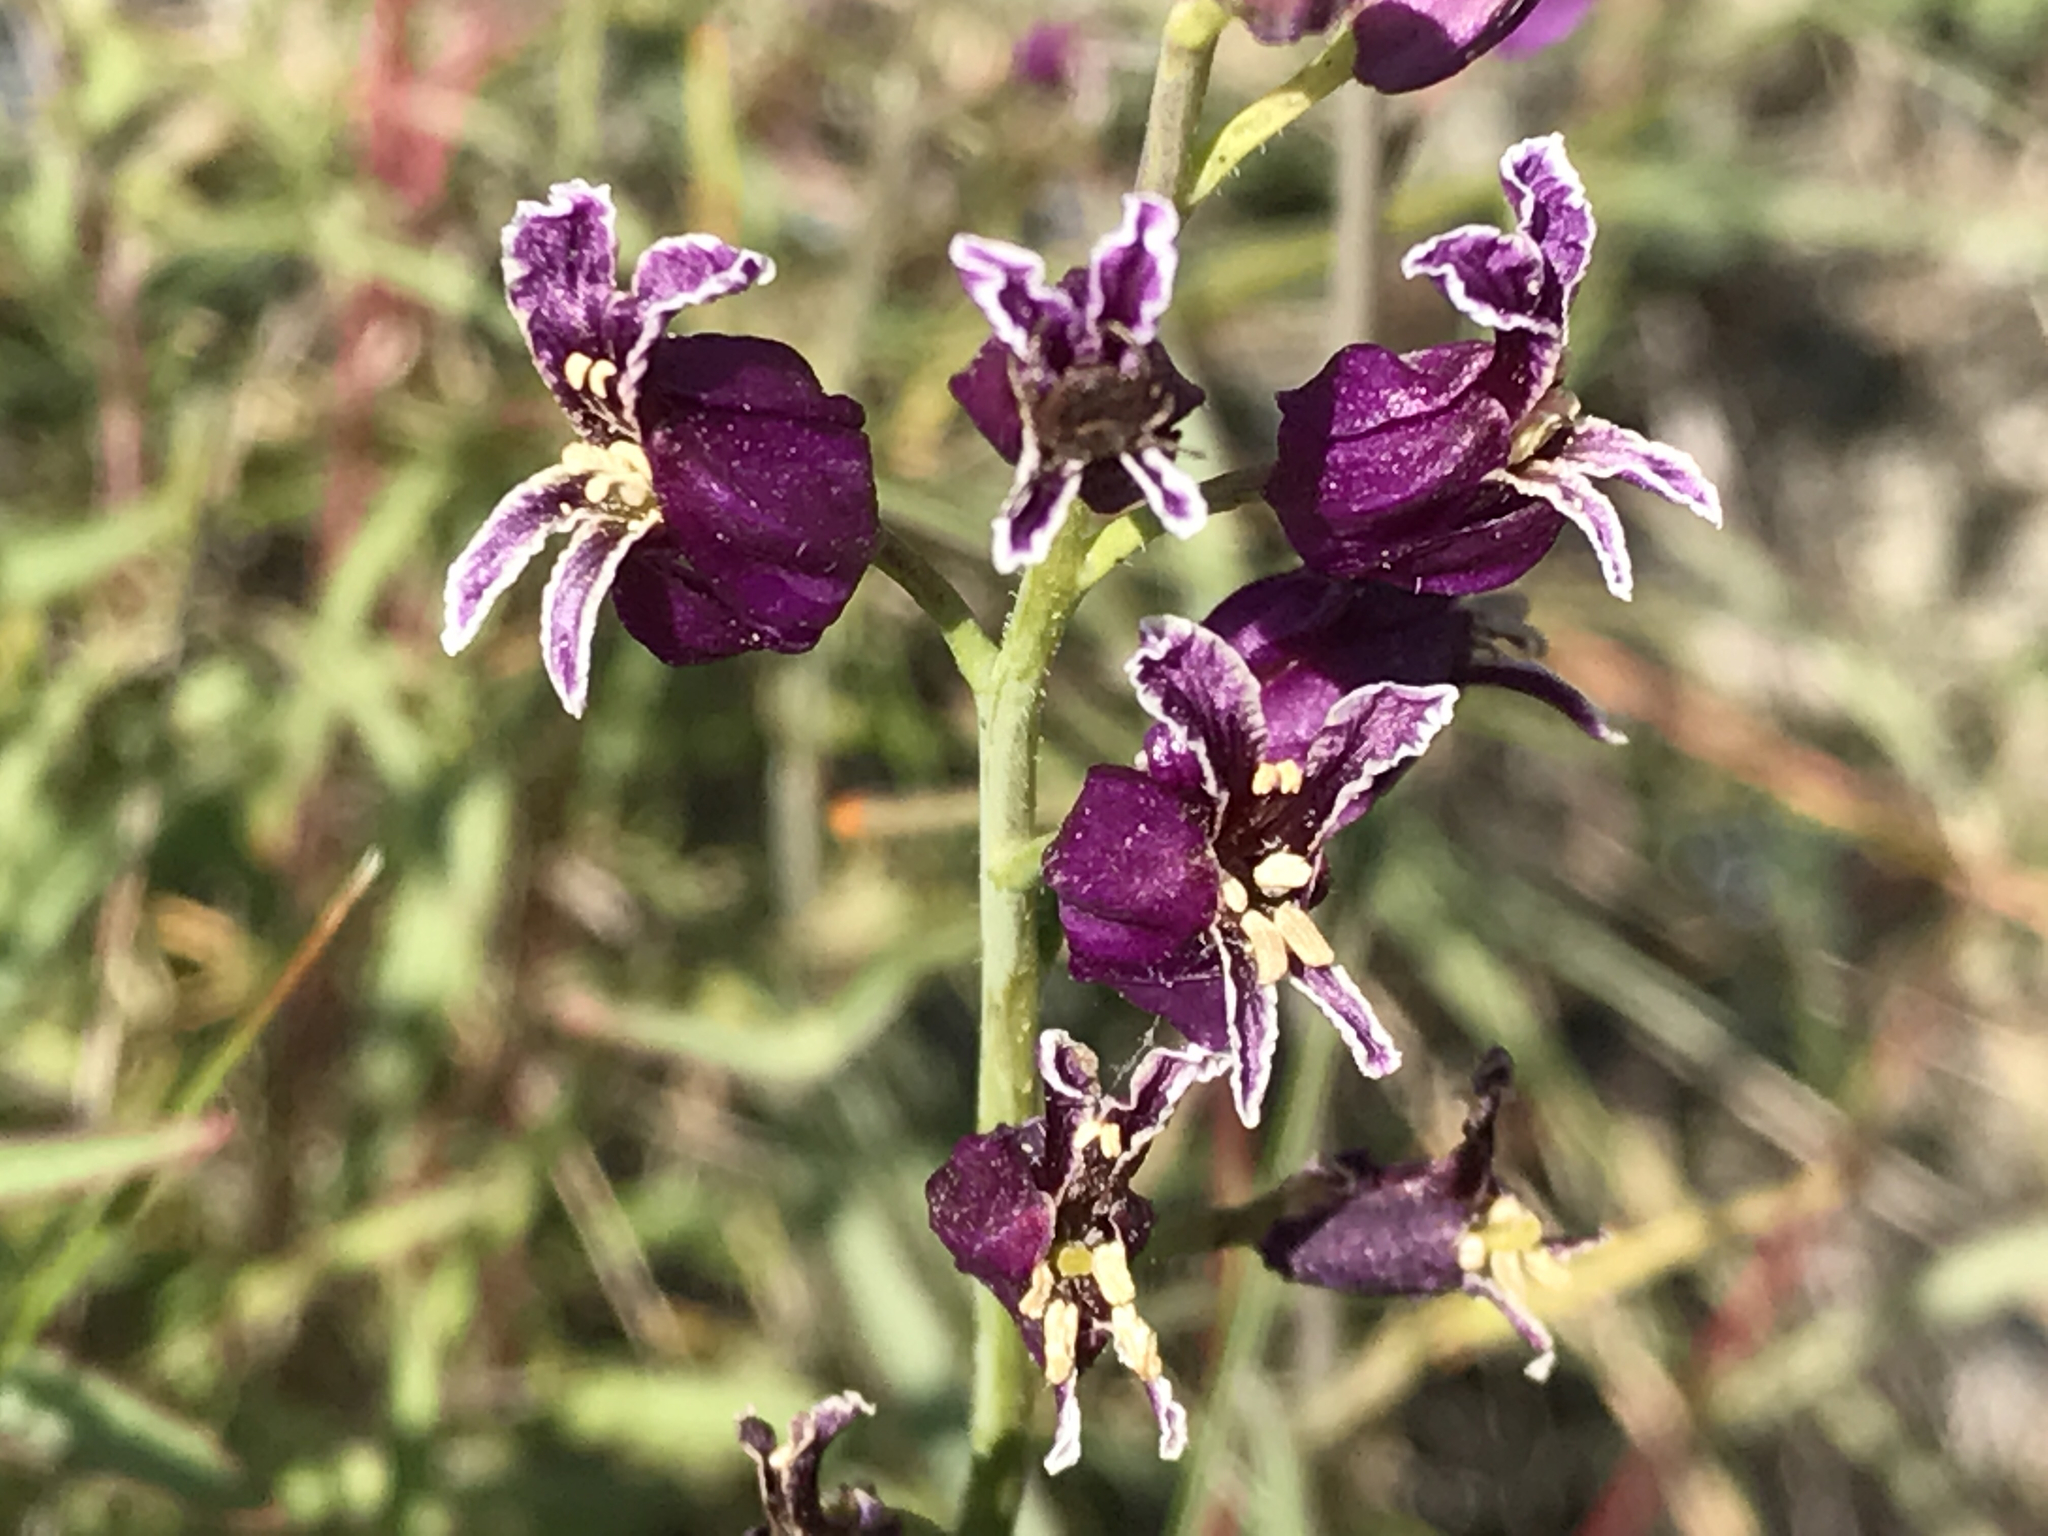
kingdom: Plantae
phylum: Tracheophyta
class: Magnoliopsida
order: Brassicales
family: Brassicaceae
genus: Streptanthus
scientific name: Streptanthus glandulosus
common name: Jewel-flower
